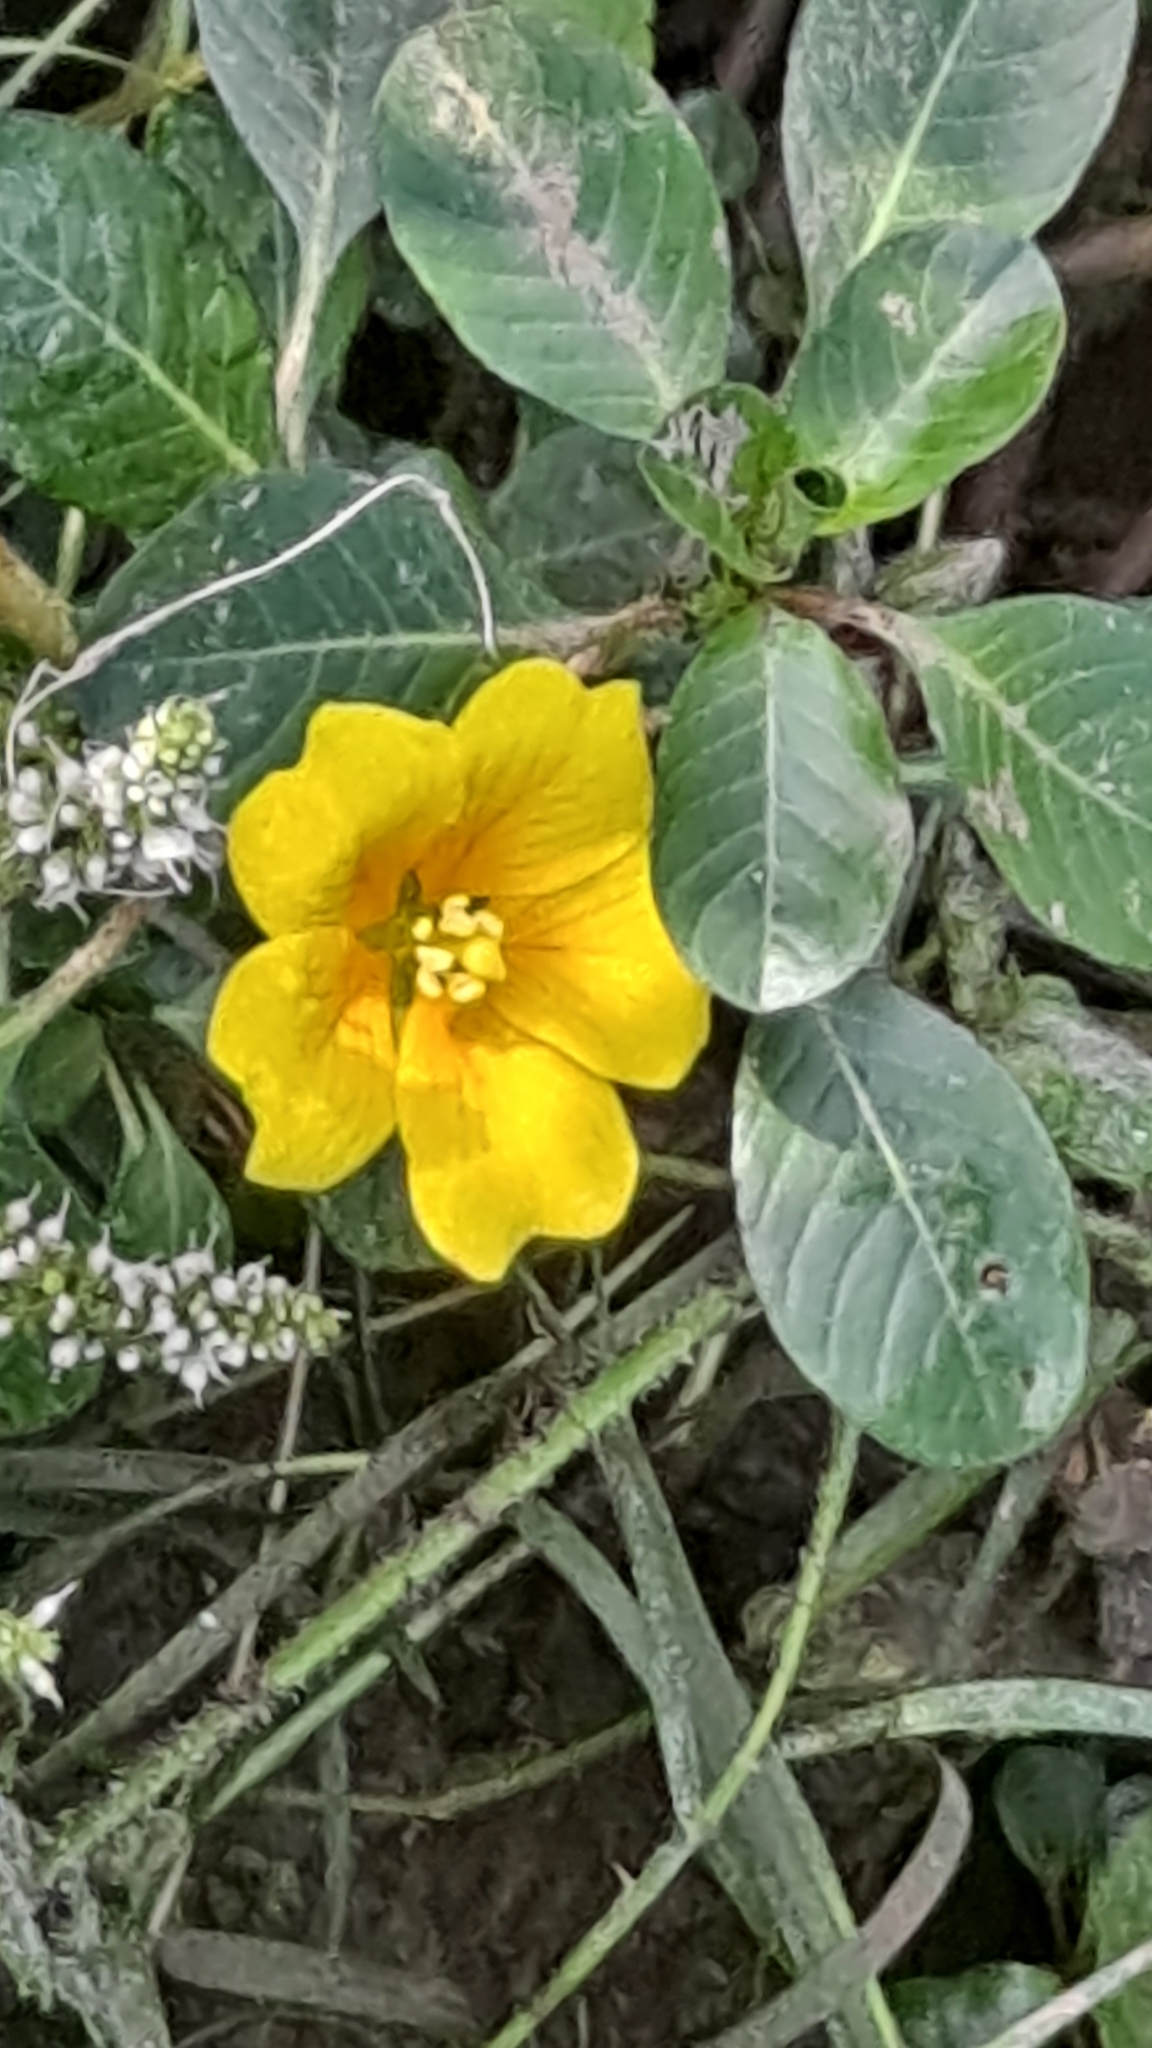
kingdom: Plantae
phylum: Tracheophyta
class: Magnoliopsida
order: Myrtales
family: Onagraceae
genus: Ludwigia
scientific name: Ludwigia peploides
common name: Floating primrose-willow
